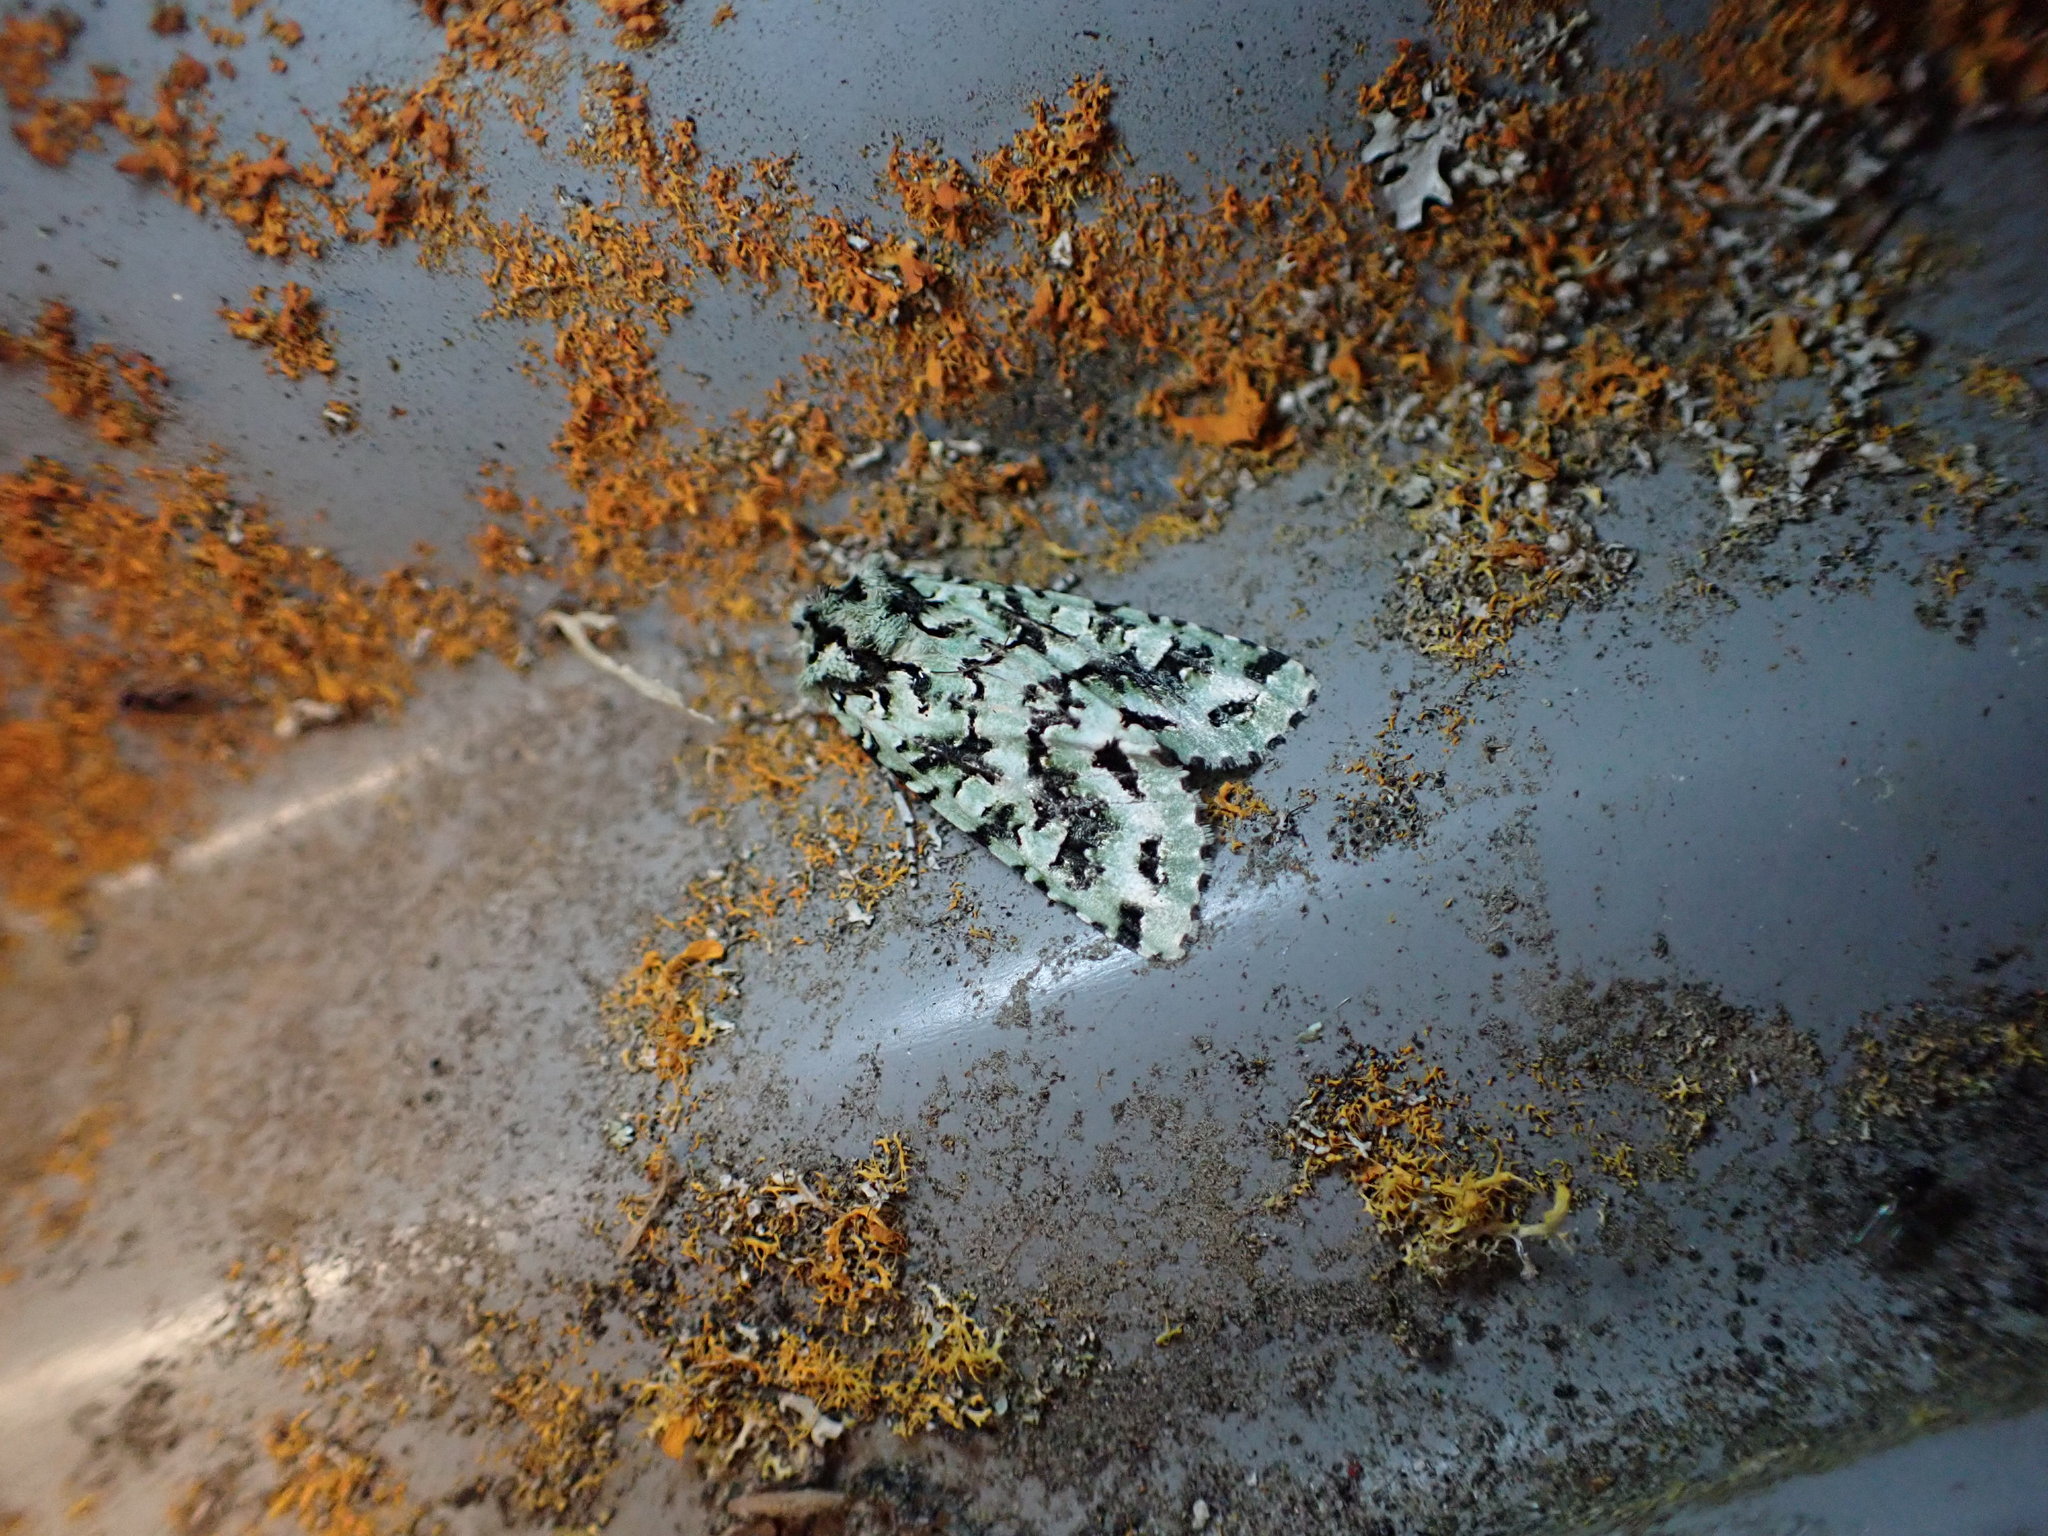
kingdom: Animalia
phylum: Arthropoda
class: Insecta
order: Lepidoptera
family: Noctuidae
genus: Meterana
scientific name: Meterana
